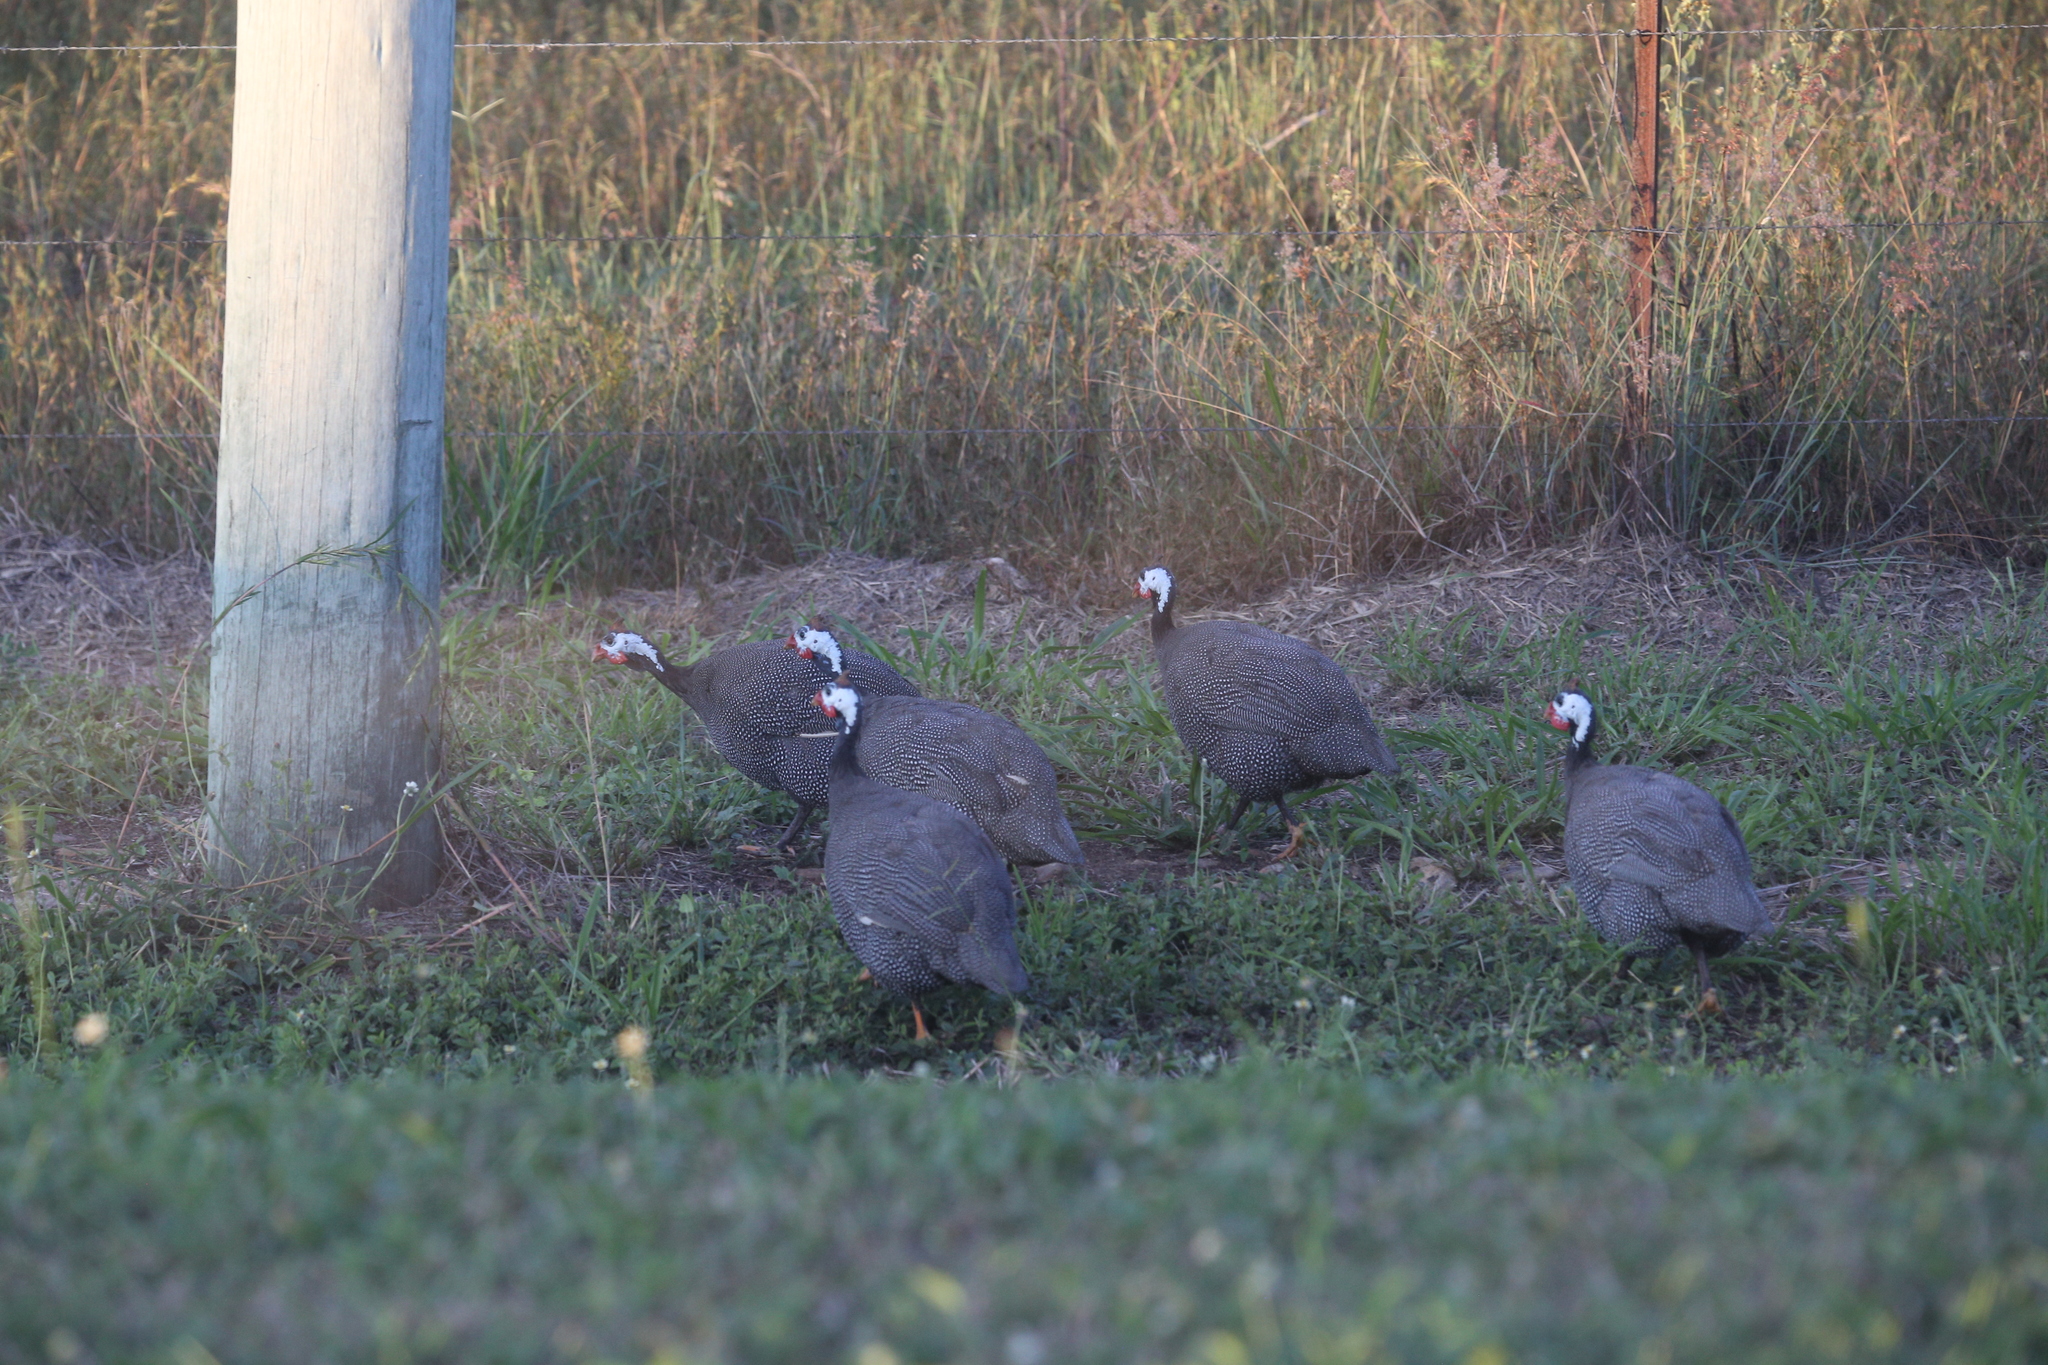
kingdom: Animalia
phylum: Chordata
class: Aves
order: Galliformes
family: Numididae
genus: Numida
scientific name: Numida meleagris
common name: Helmeted guineafowl
